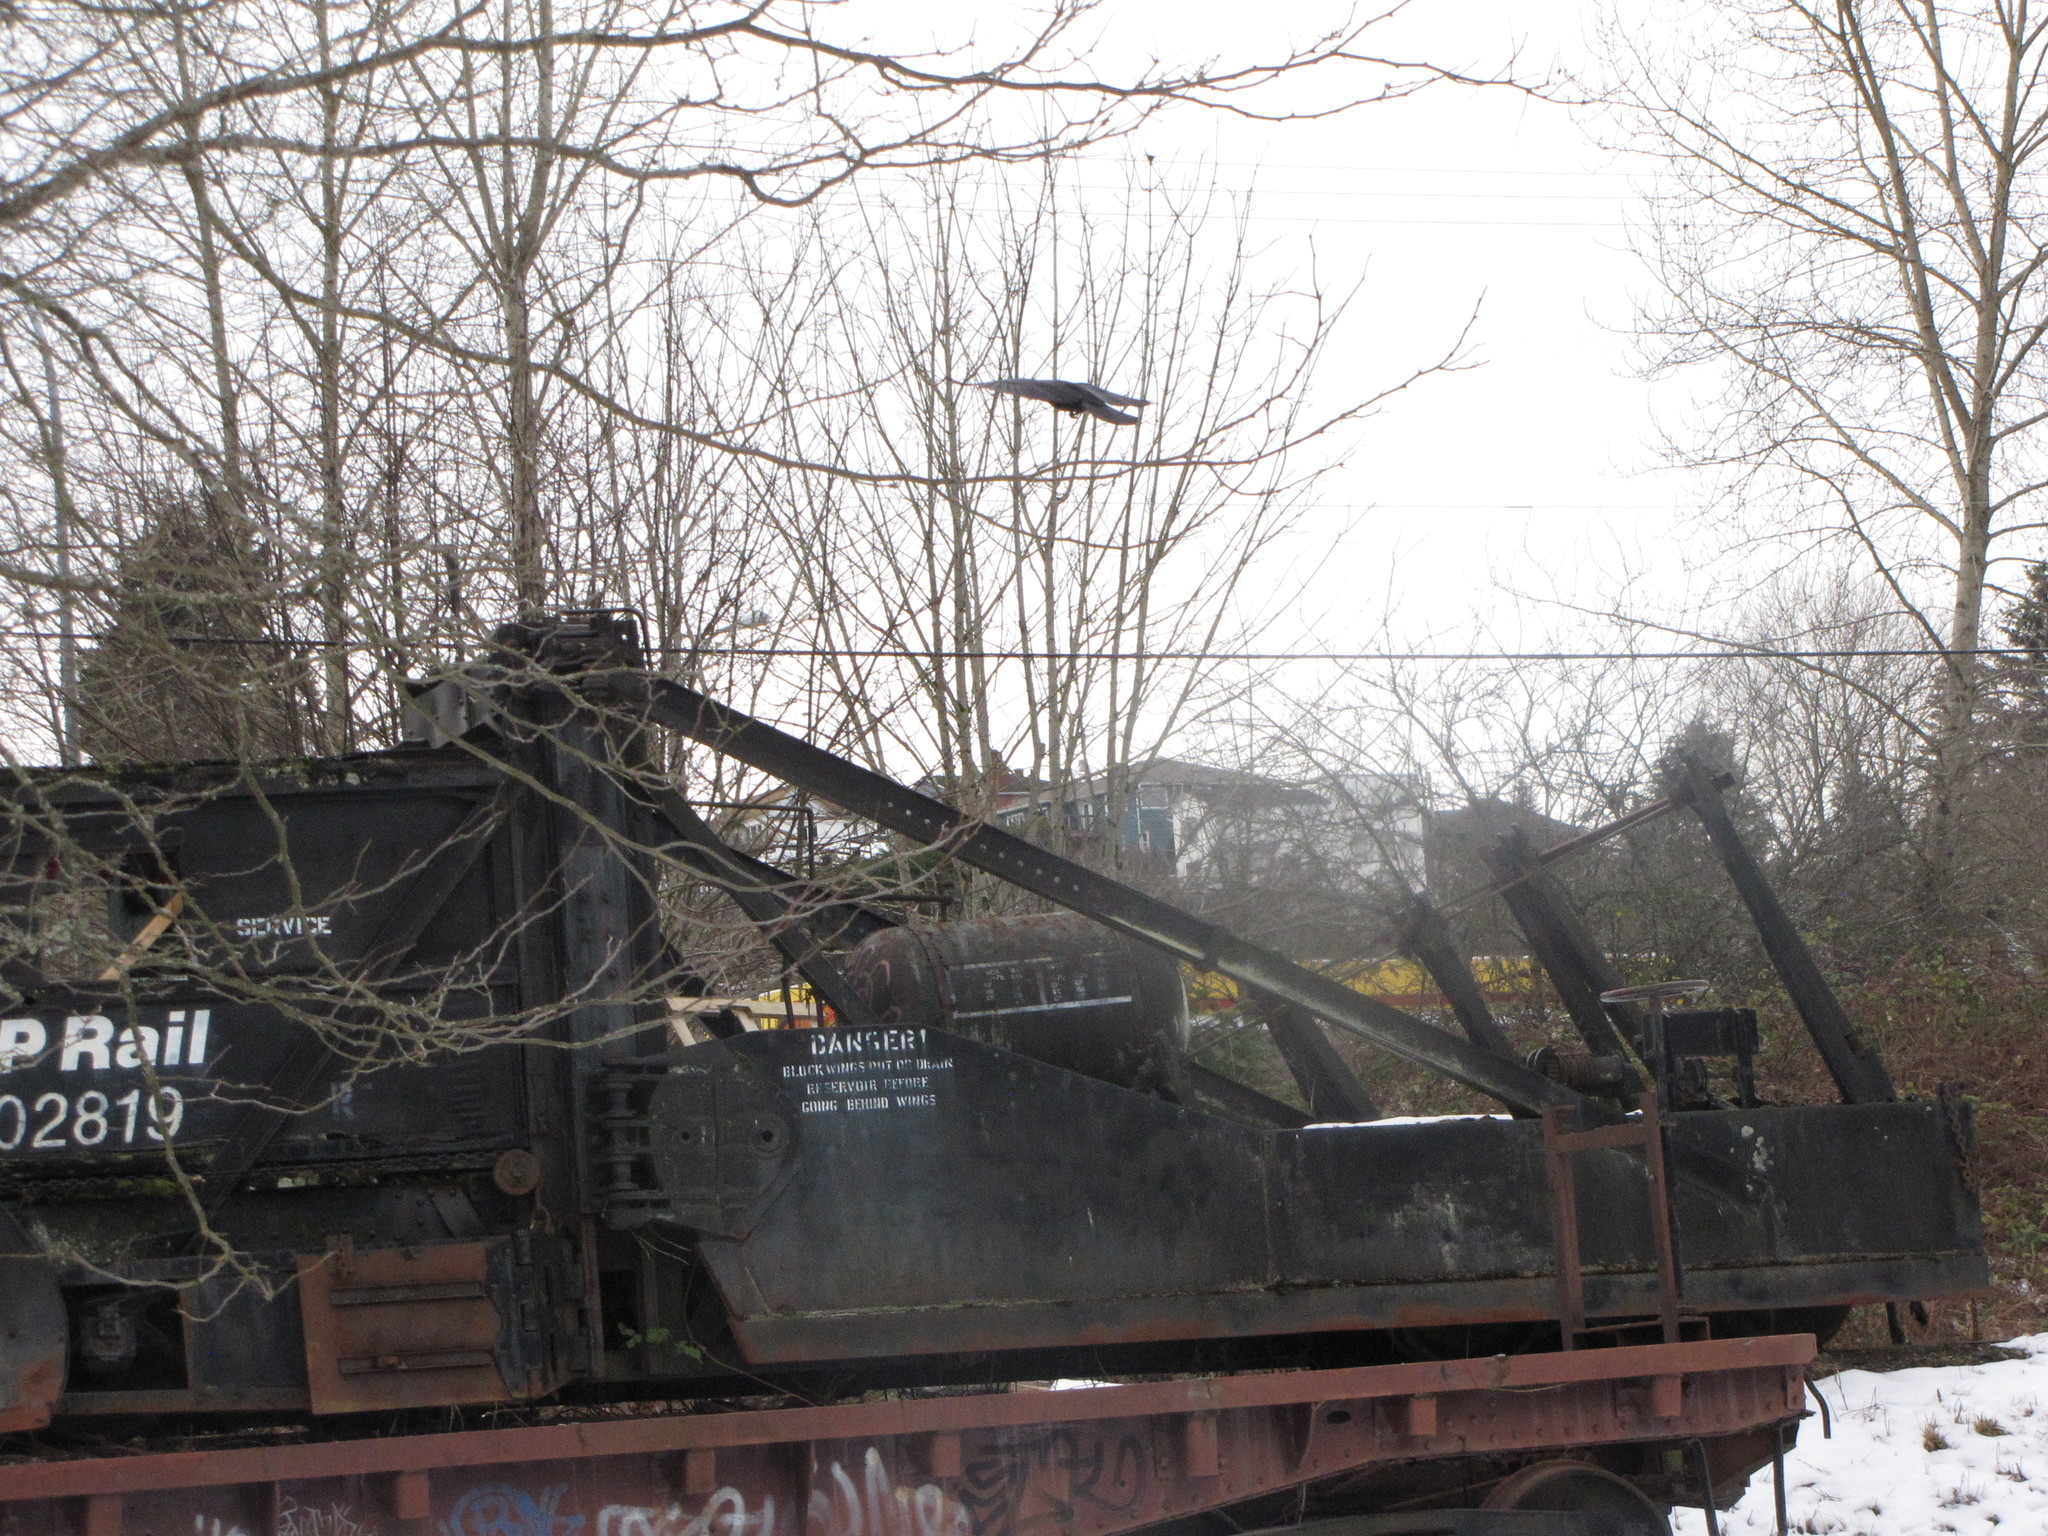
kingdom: Animalia
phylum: Chordata
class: Aves
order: Passeriformes
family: Corvidae
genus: Corvus
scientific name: Corvus brachyrhynchos
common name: American crow
